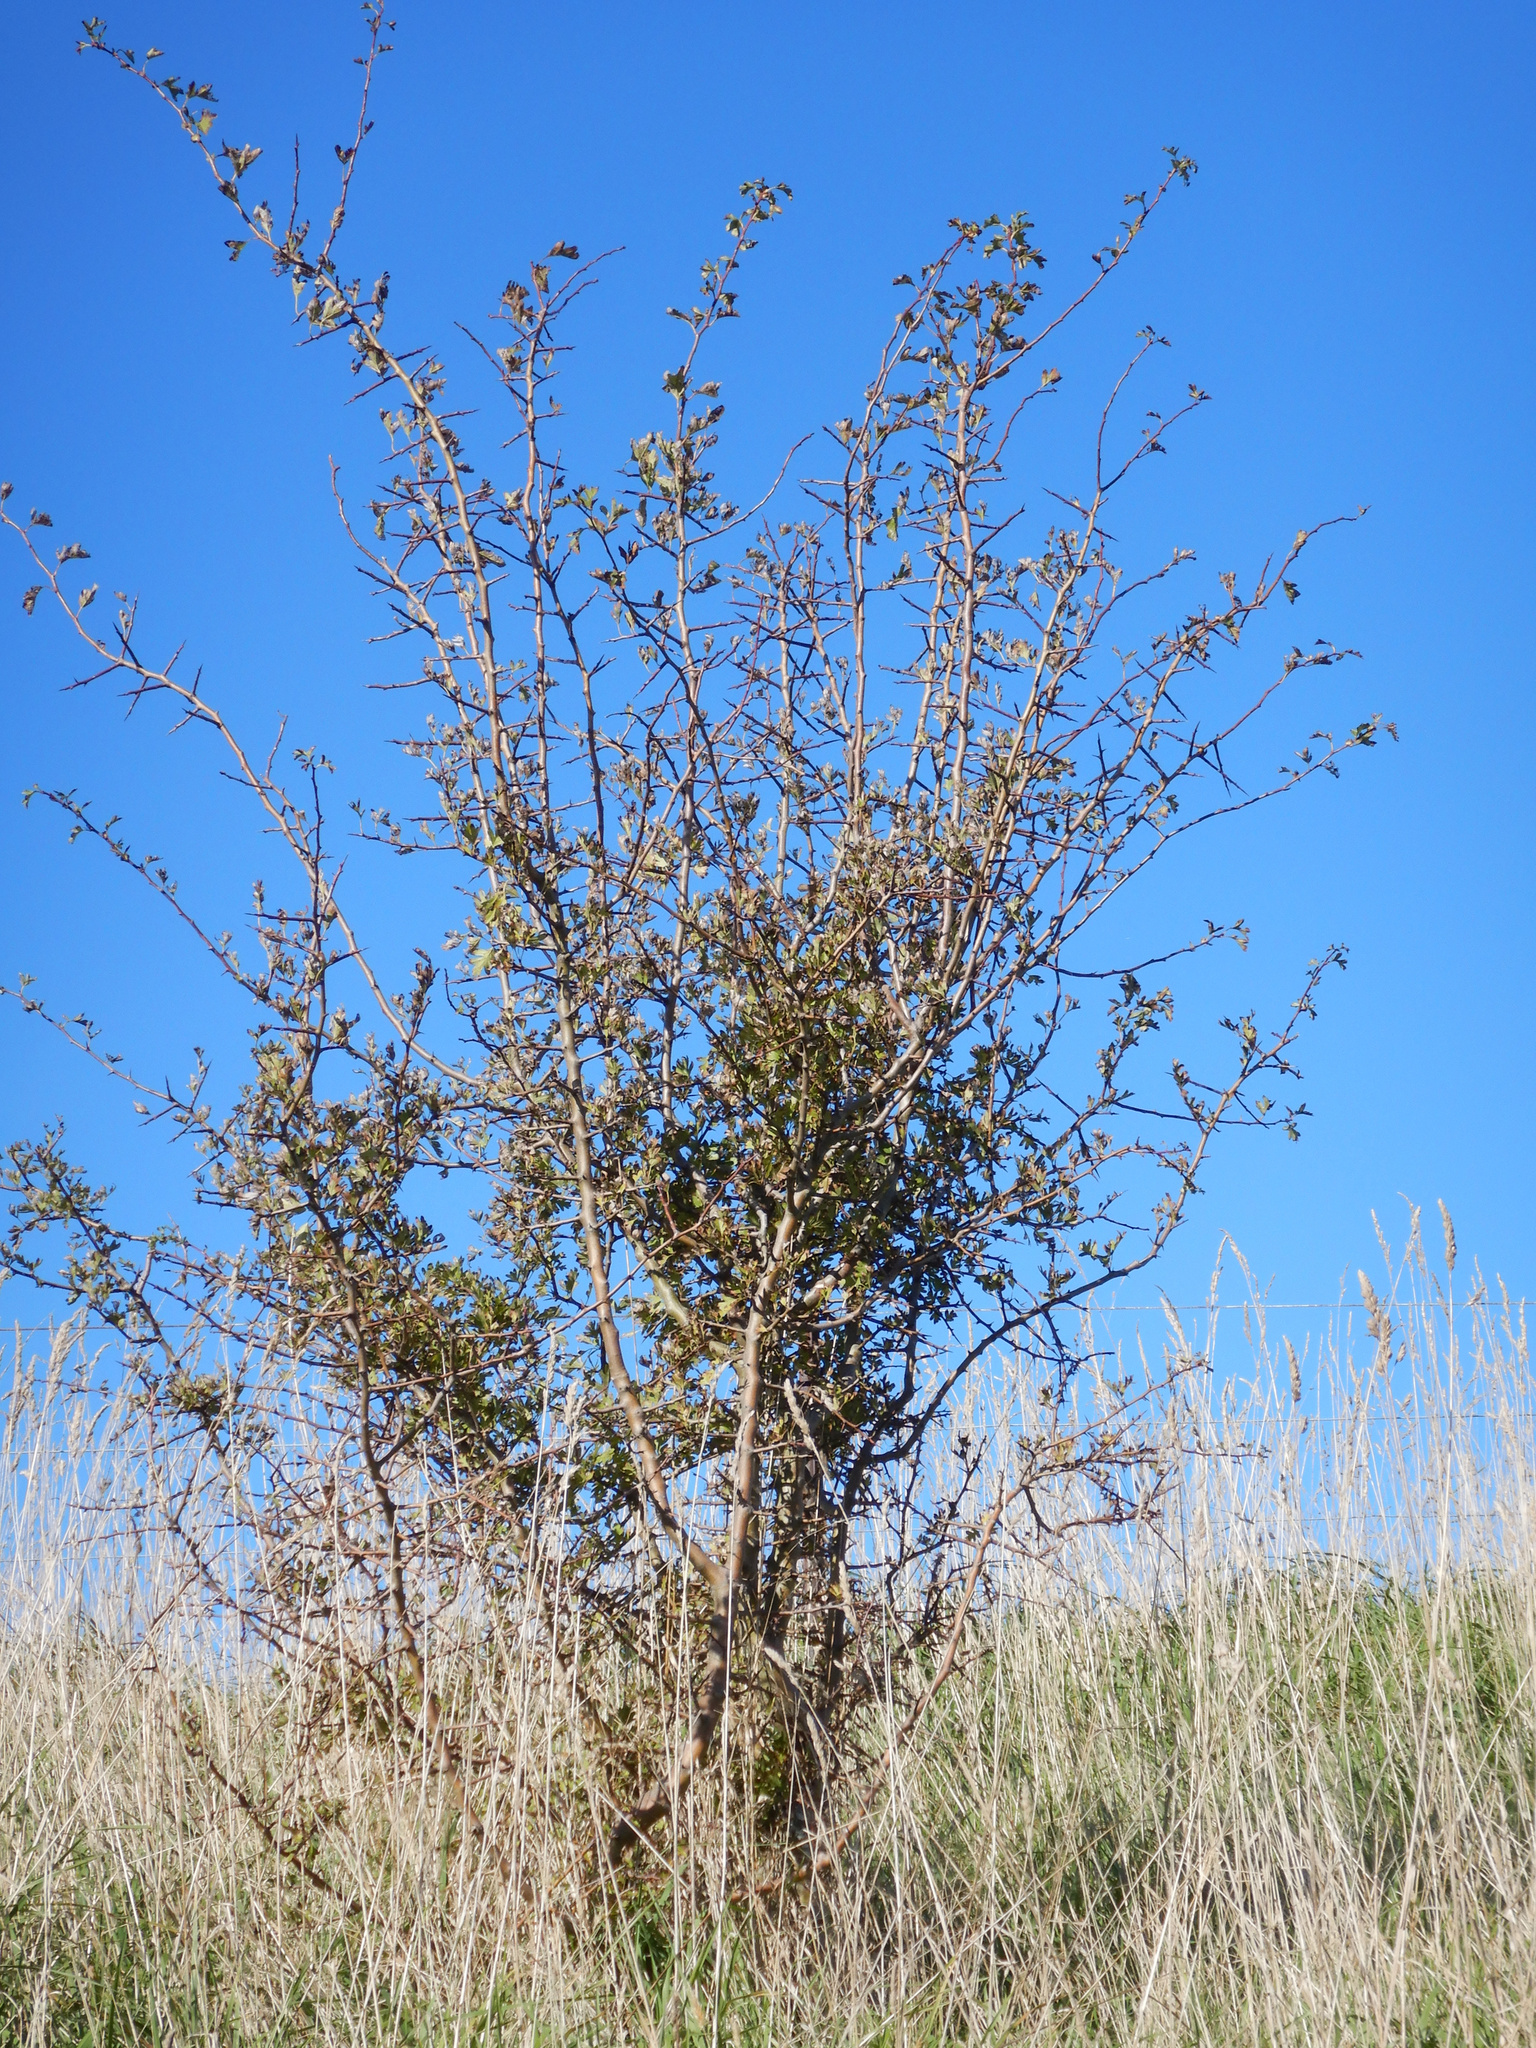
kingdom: Plantae
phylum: Tracheophyta
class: Magnoliopsida
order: Rosales
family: Rosaceae
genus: Crataegus
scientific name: Crataegus monogyna
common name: Hawthorn
